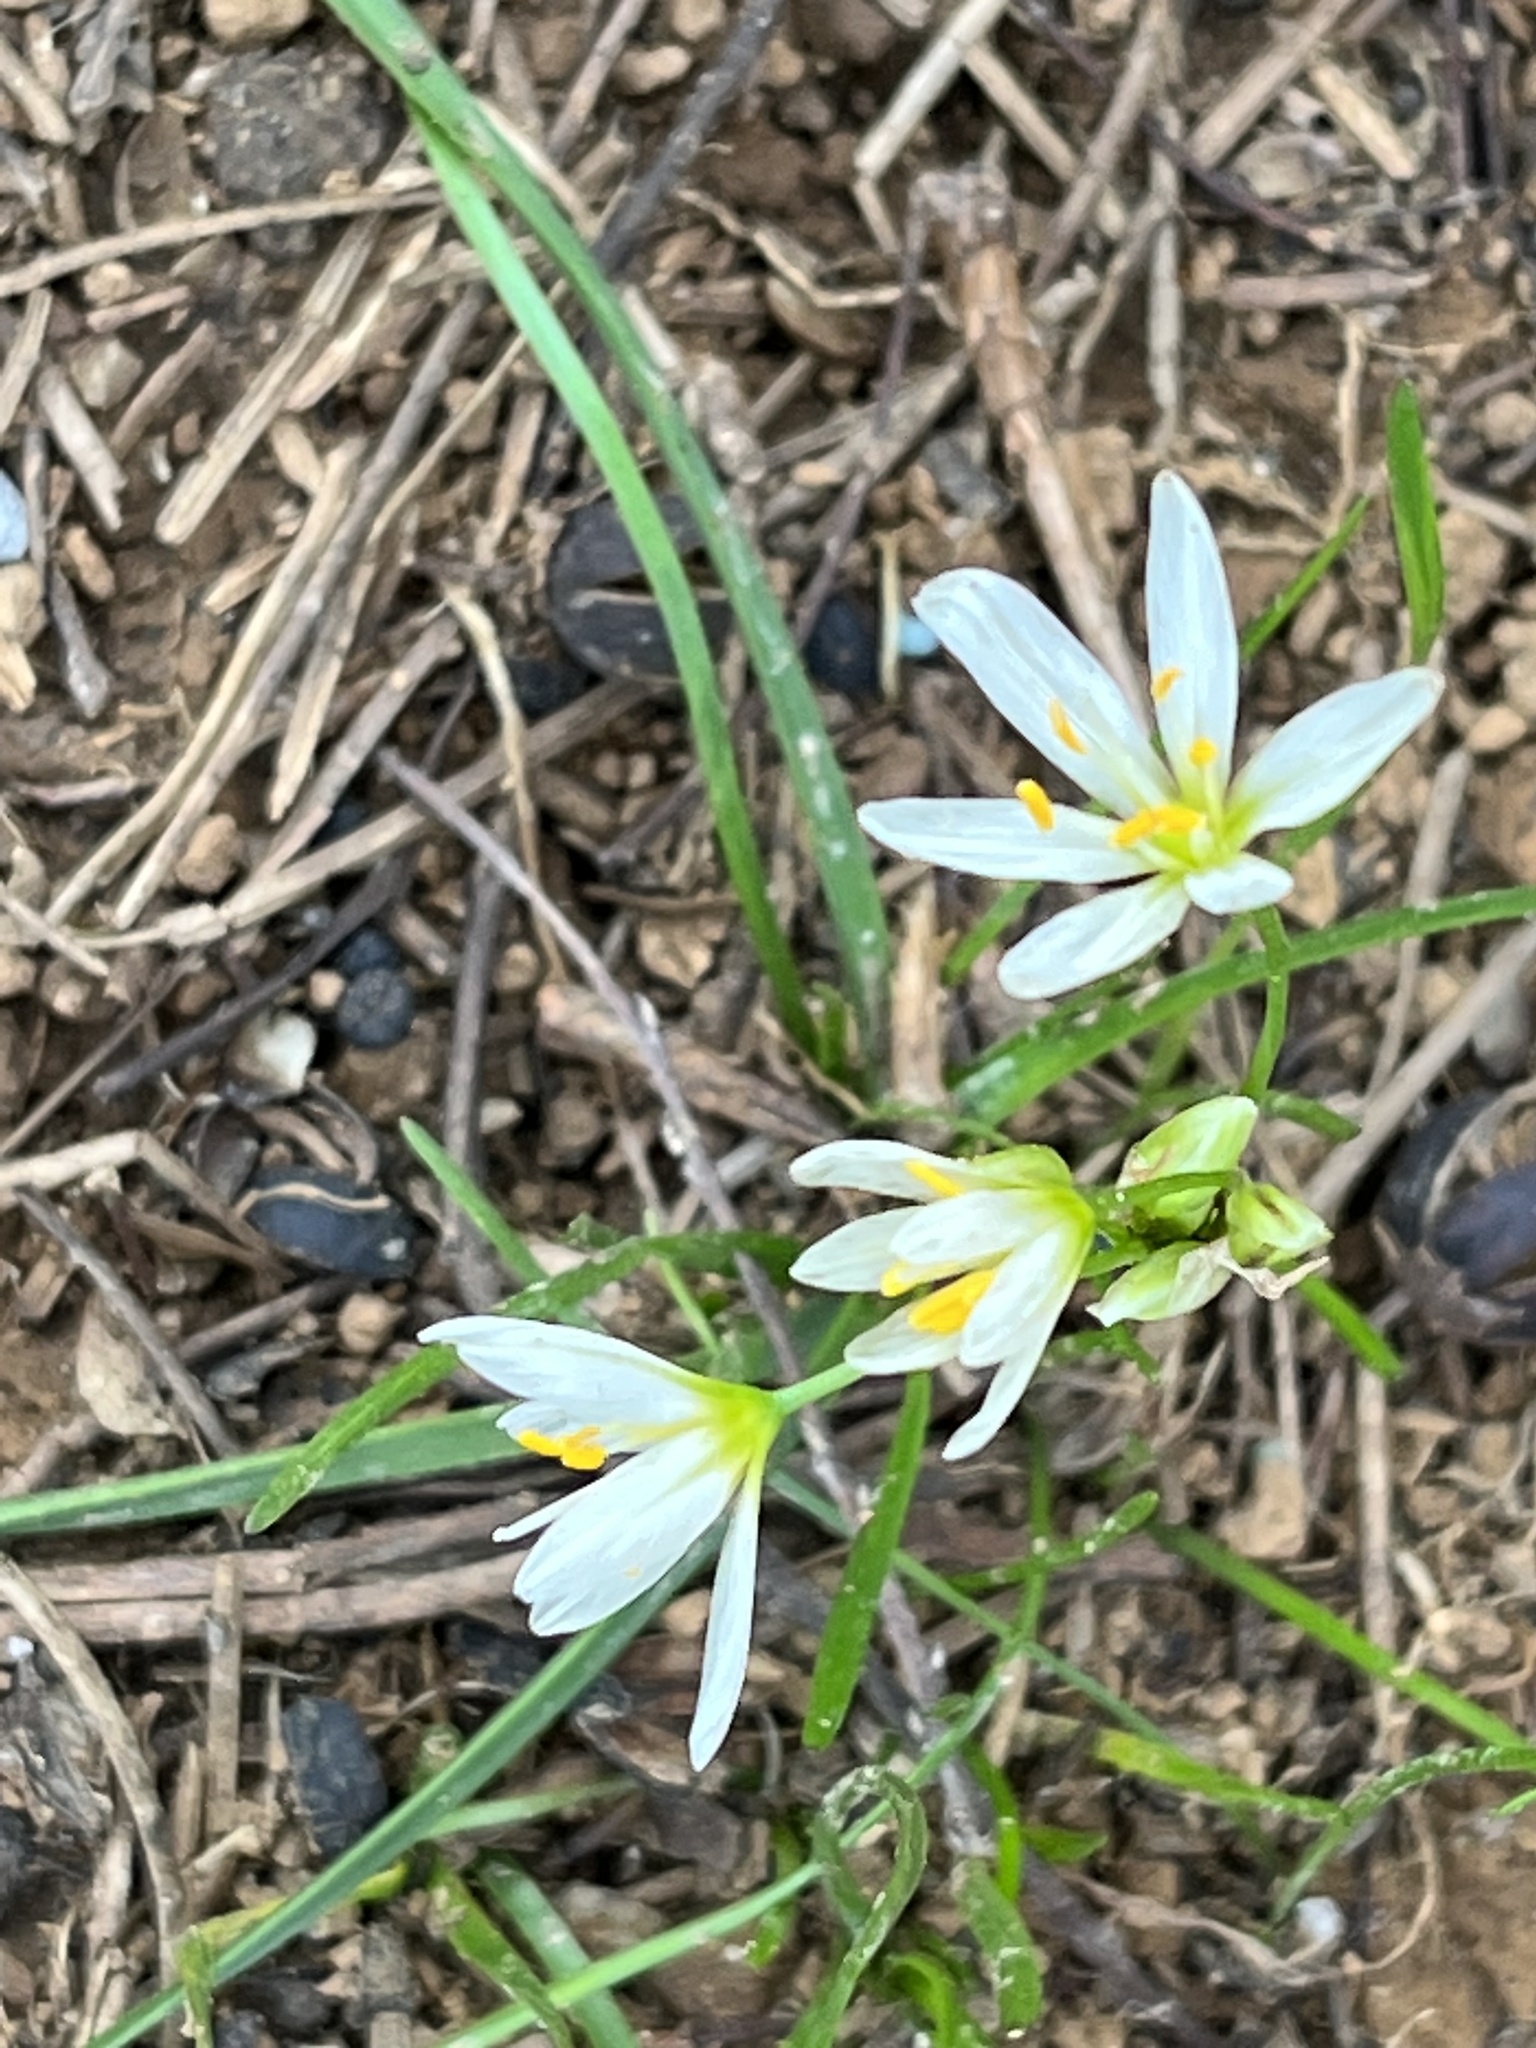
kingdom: Plantae
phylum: Tracheophyta
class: Liliopsida
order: Asparagales
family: Amaryllidaceae
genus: Nothoscordum
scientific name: Nothoscordum bivalve
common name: Crow-poison
